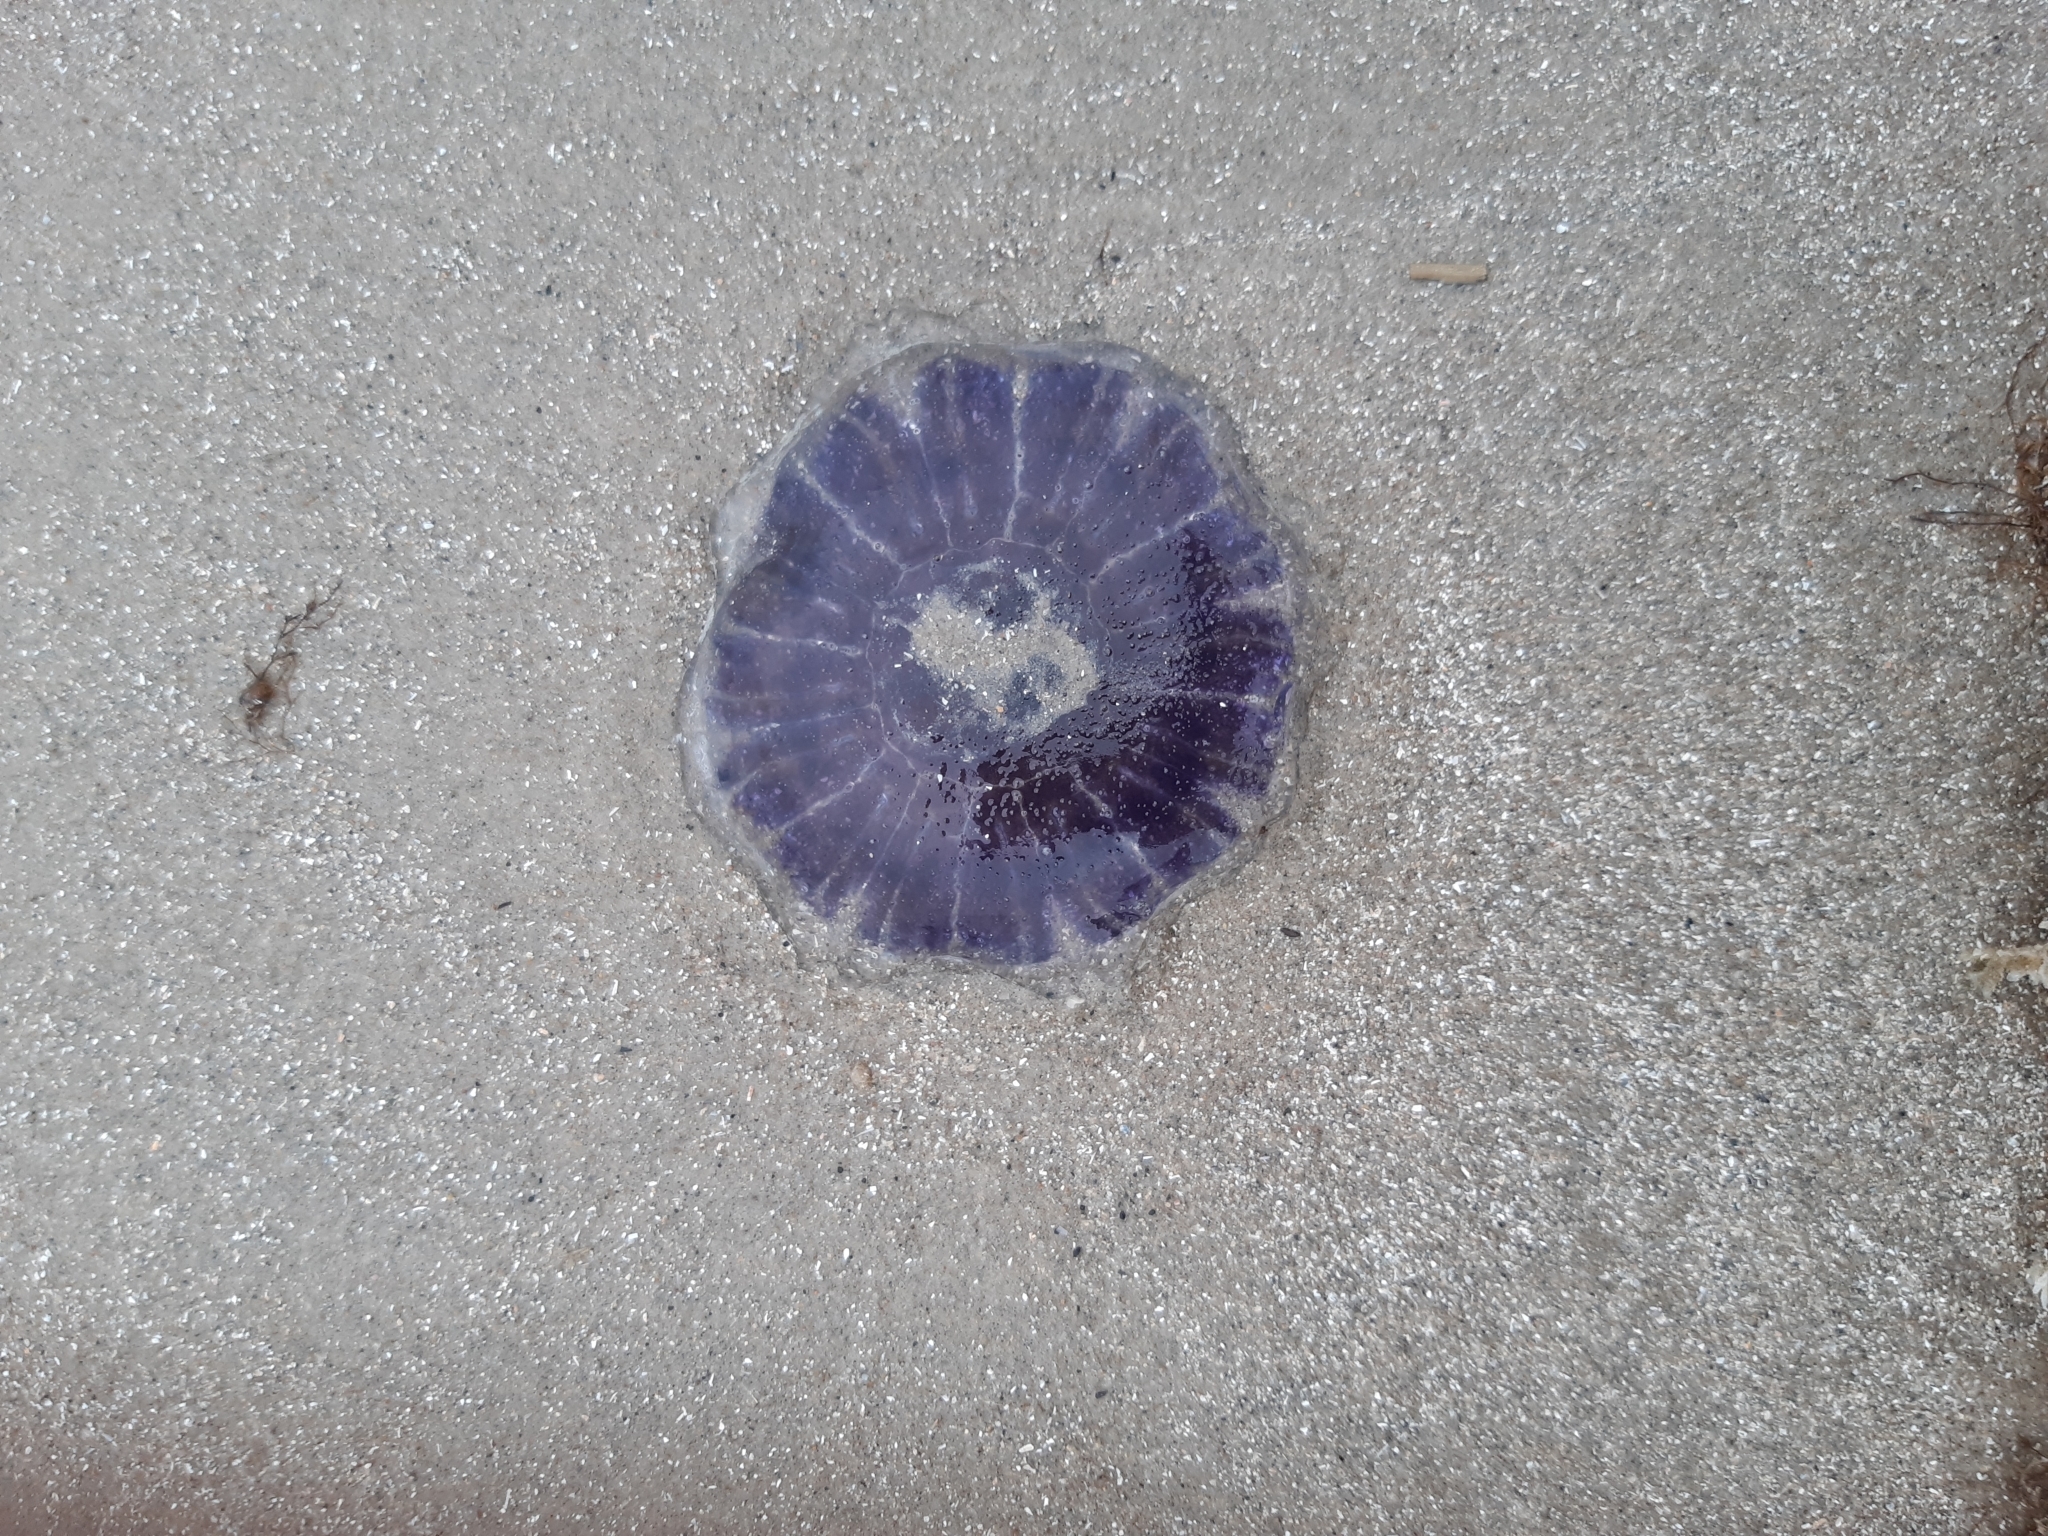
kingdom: Animalia
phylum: Cnidaria
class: Scyphozoa
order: Semaeostomeae
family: Cyaneidae
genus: Cyanea
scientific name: Cyanea lamarckii
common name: Blue jellyfish
